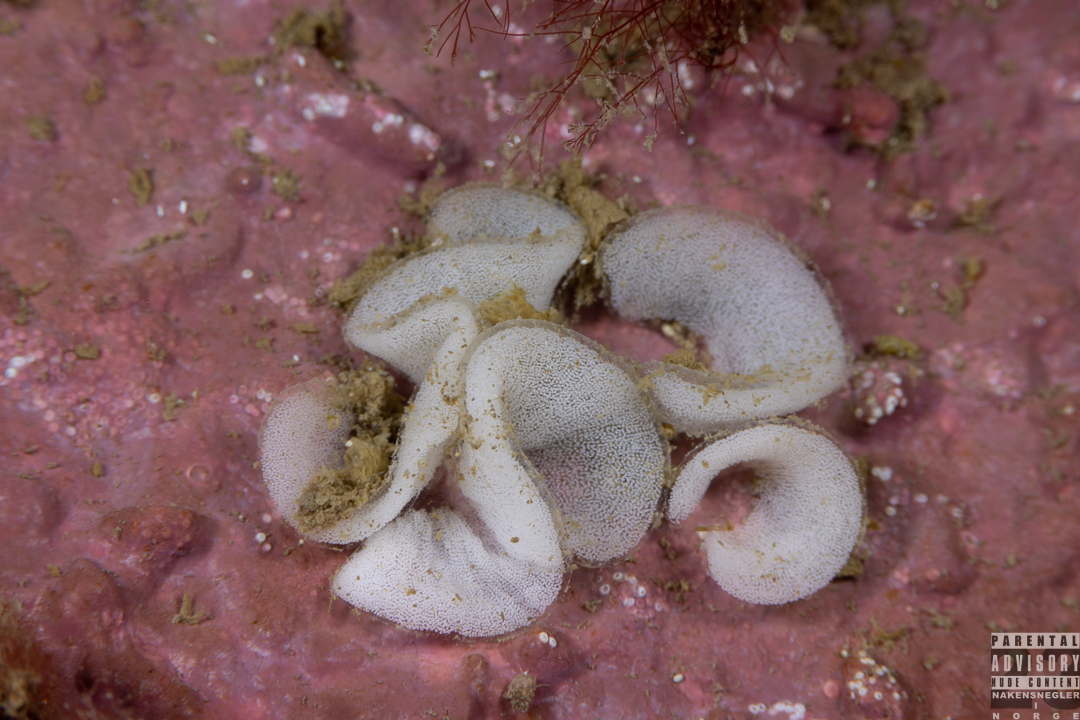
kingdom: Animalia
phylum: Mollusca
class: Gastropoda
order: Nudibranchia
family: Onchidorididae
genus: Onchidoris
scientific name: Onchidoris bilamellata
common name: Barnacle-eating onchidoris
